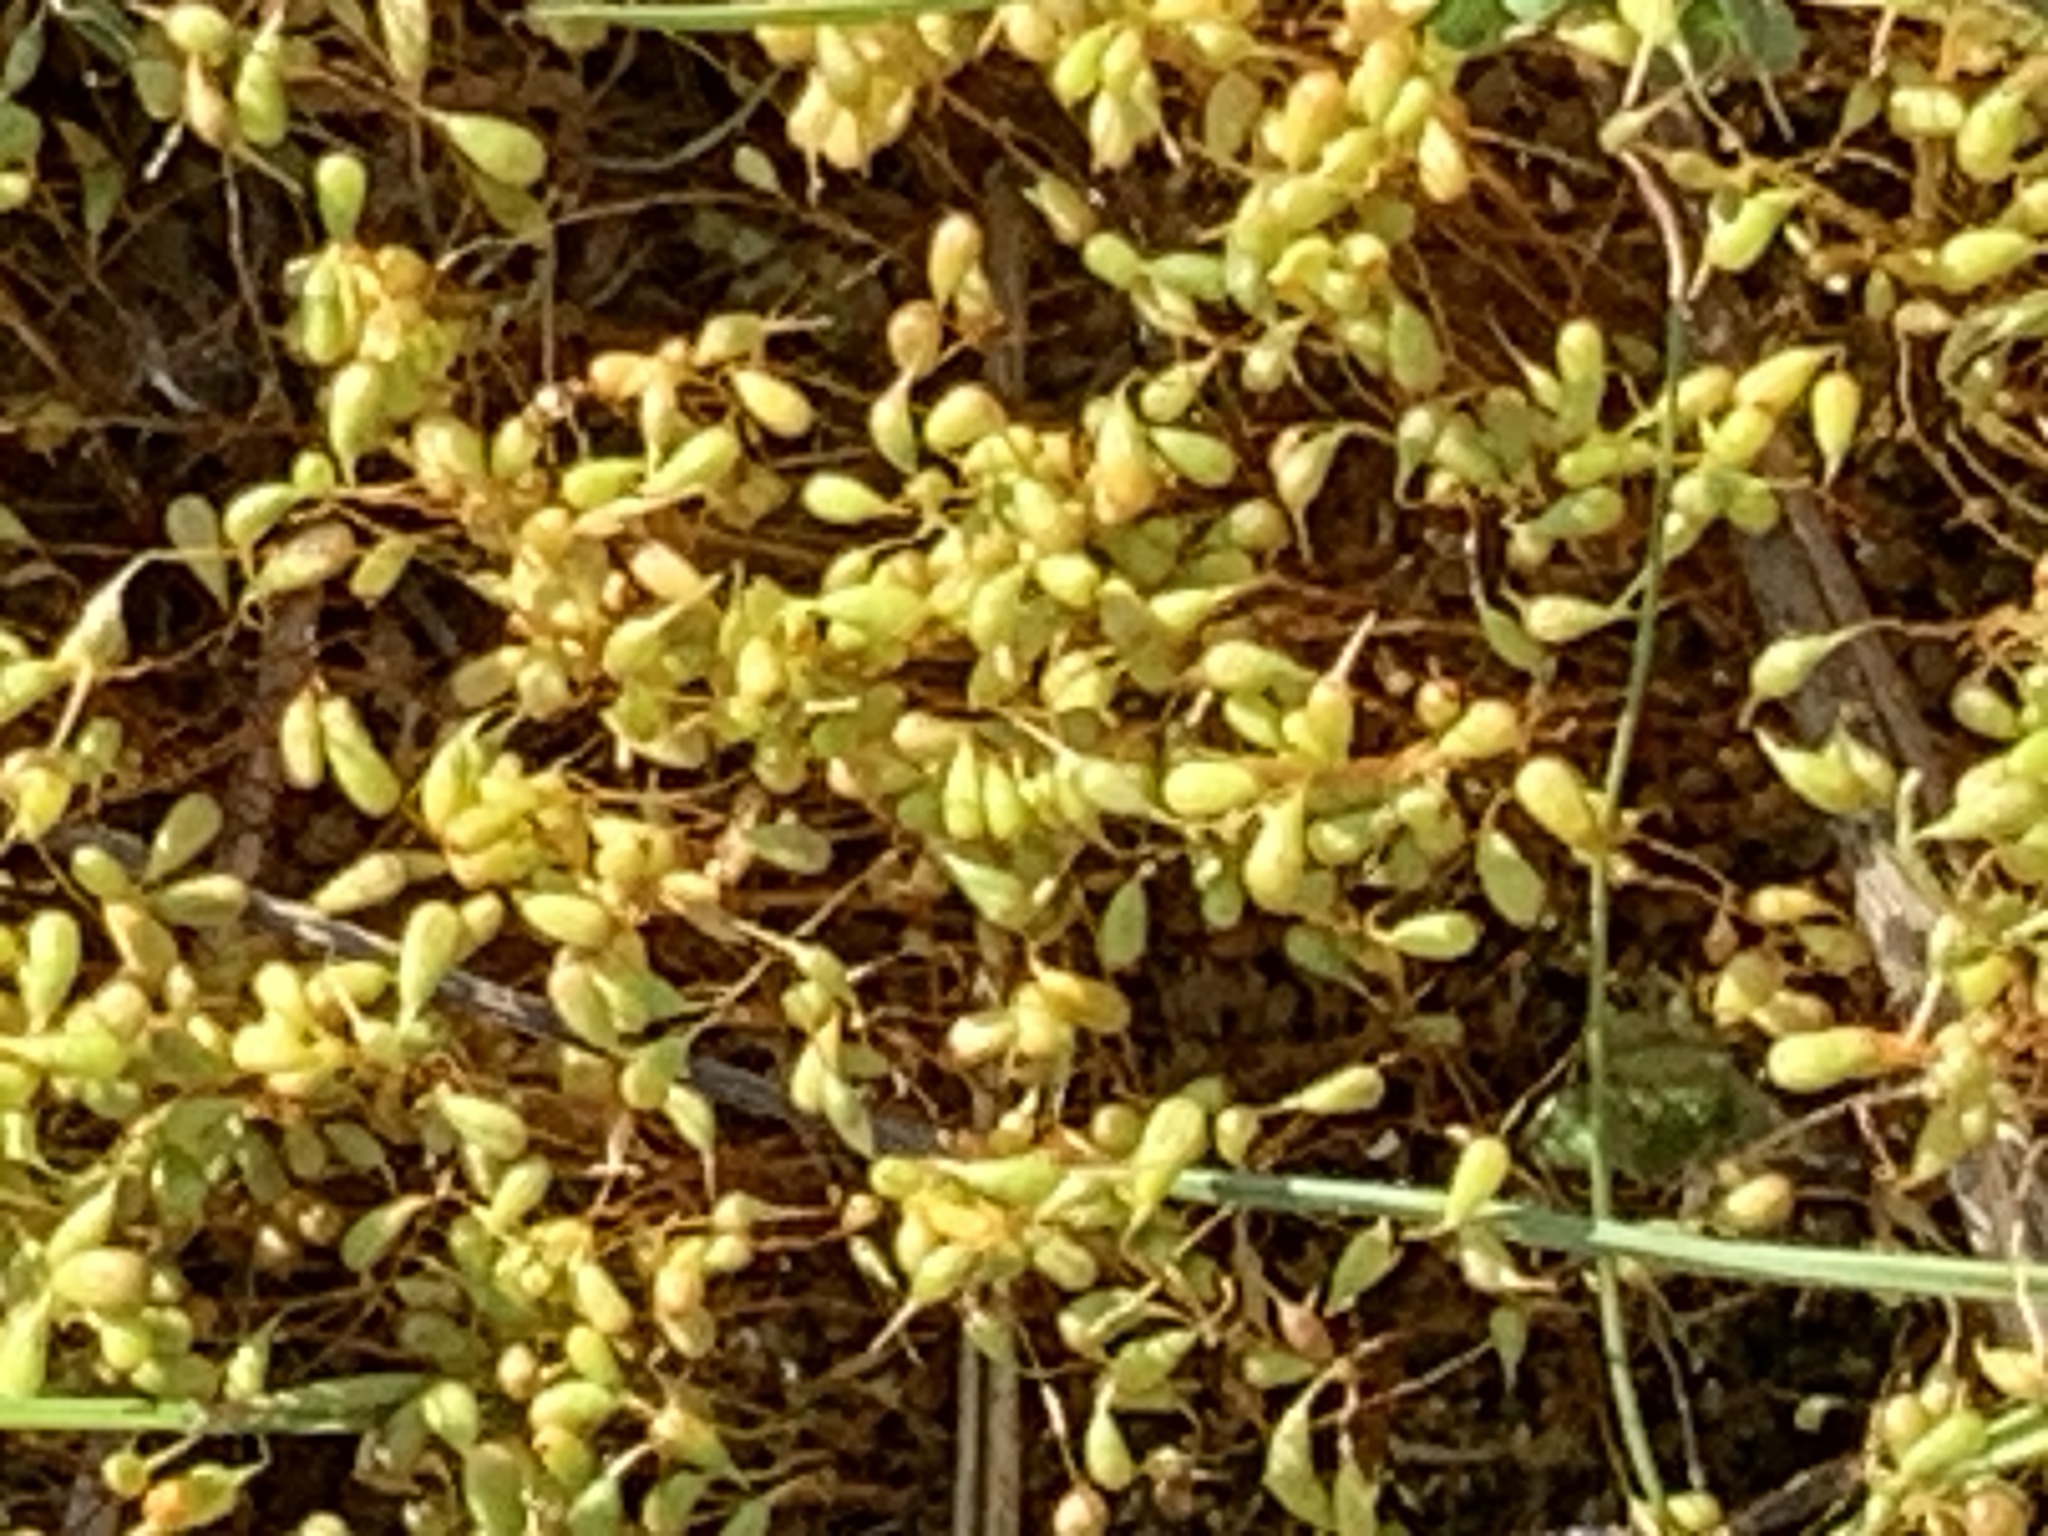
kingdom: Plantae
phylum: Bryophyta
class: Bryopsida
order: Funariales
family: Funariaceae
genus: Funaria
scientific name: Funaria hygrometrica
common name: Common cord moss
